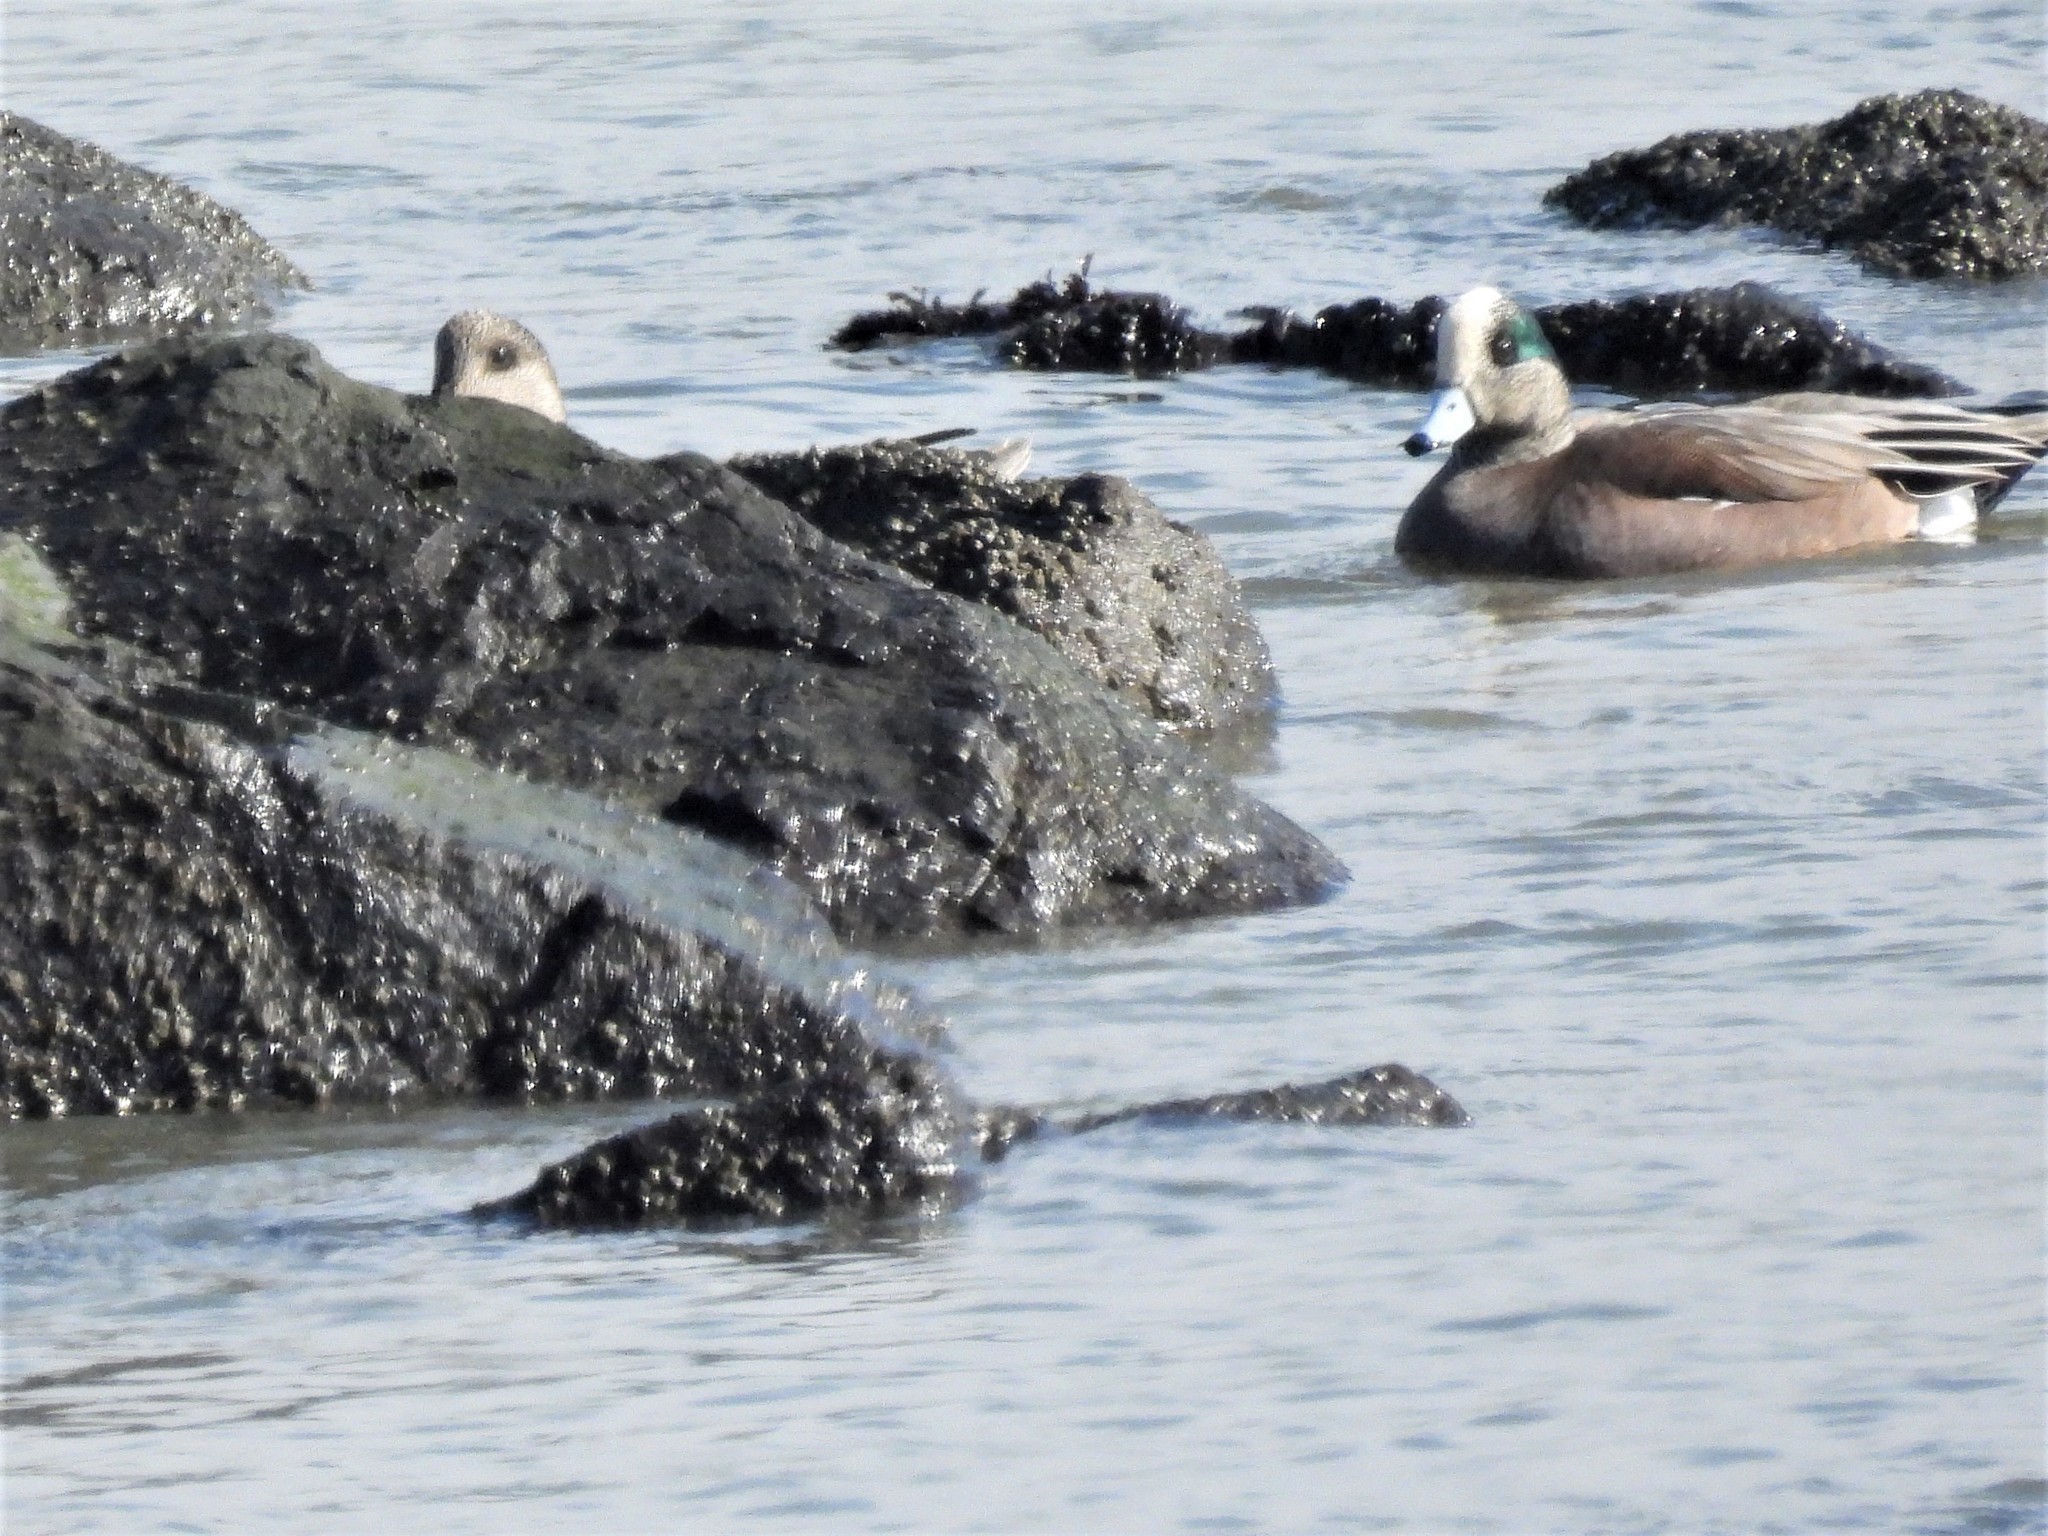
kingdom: Animalia
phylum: Chordata
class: Aves
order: Anseriformes
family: Anatidae
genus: Mareca
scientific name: Mareca americana
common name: American wigeon
